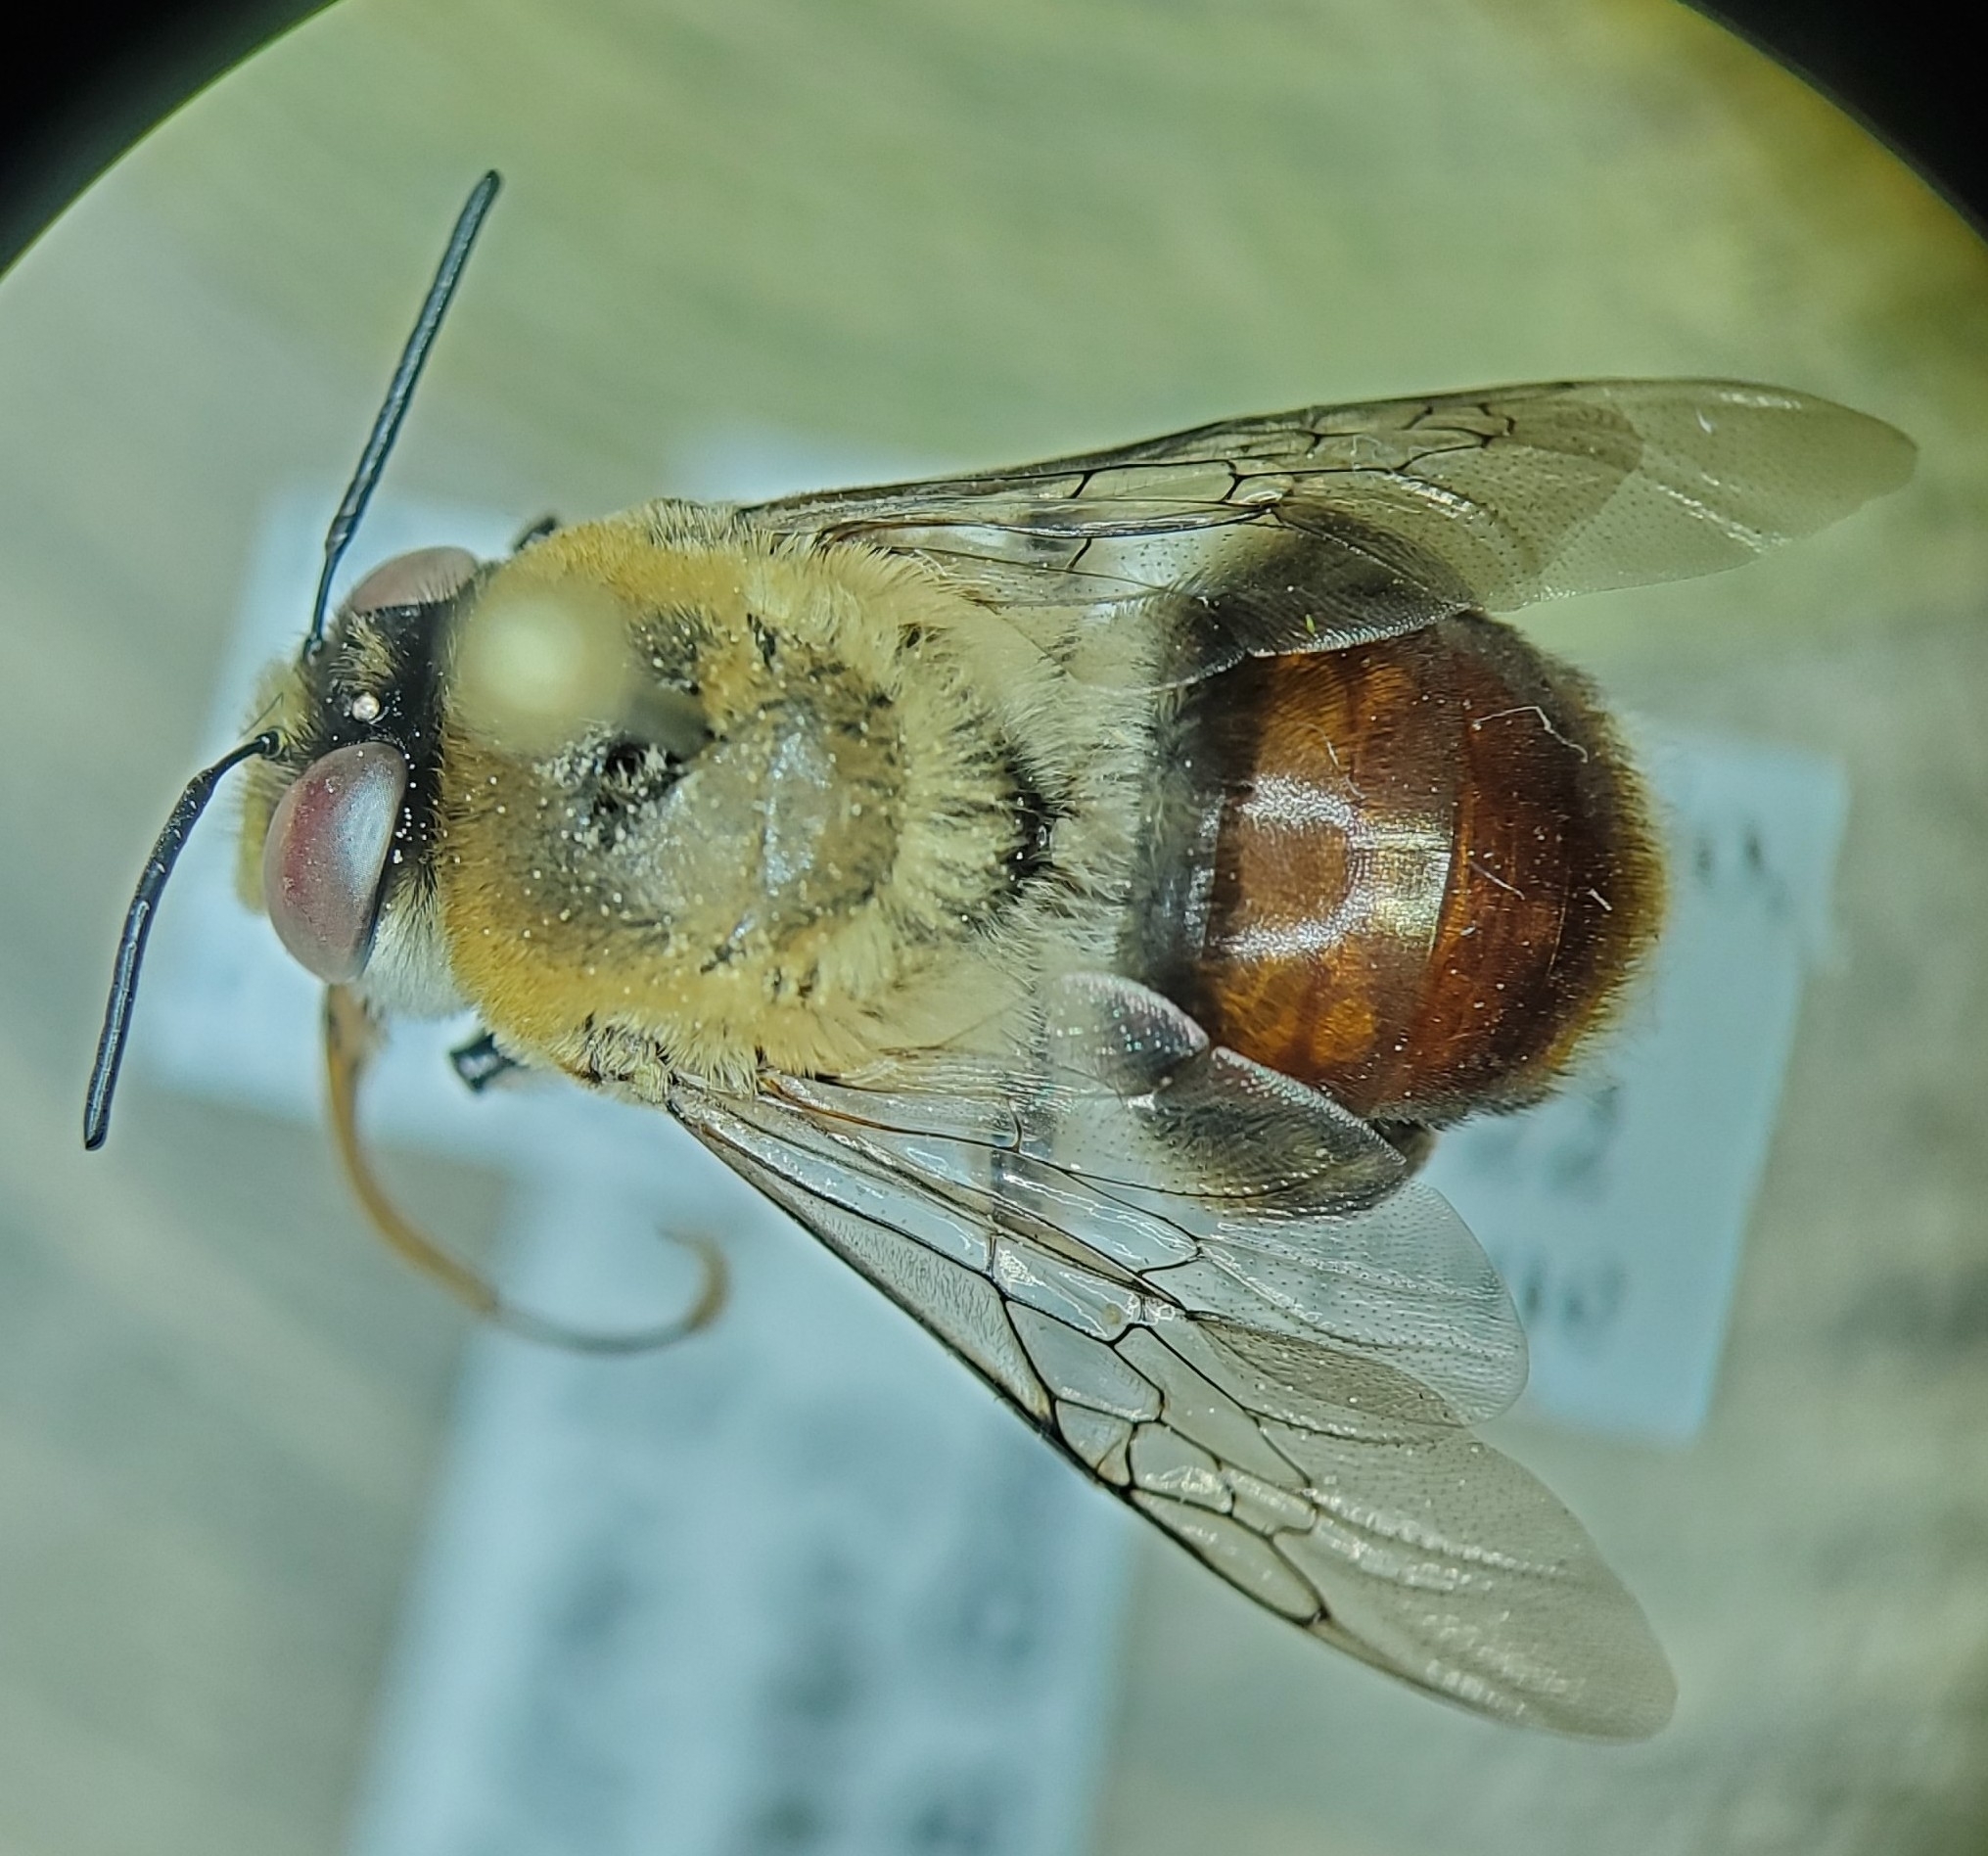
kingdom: Animalia
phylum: Arthropoda
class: Insecta
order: Hymenoptera
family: Apidae
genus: Centris
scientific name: Centris fulviventris
